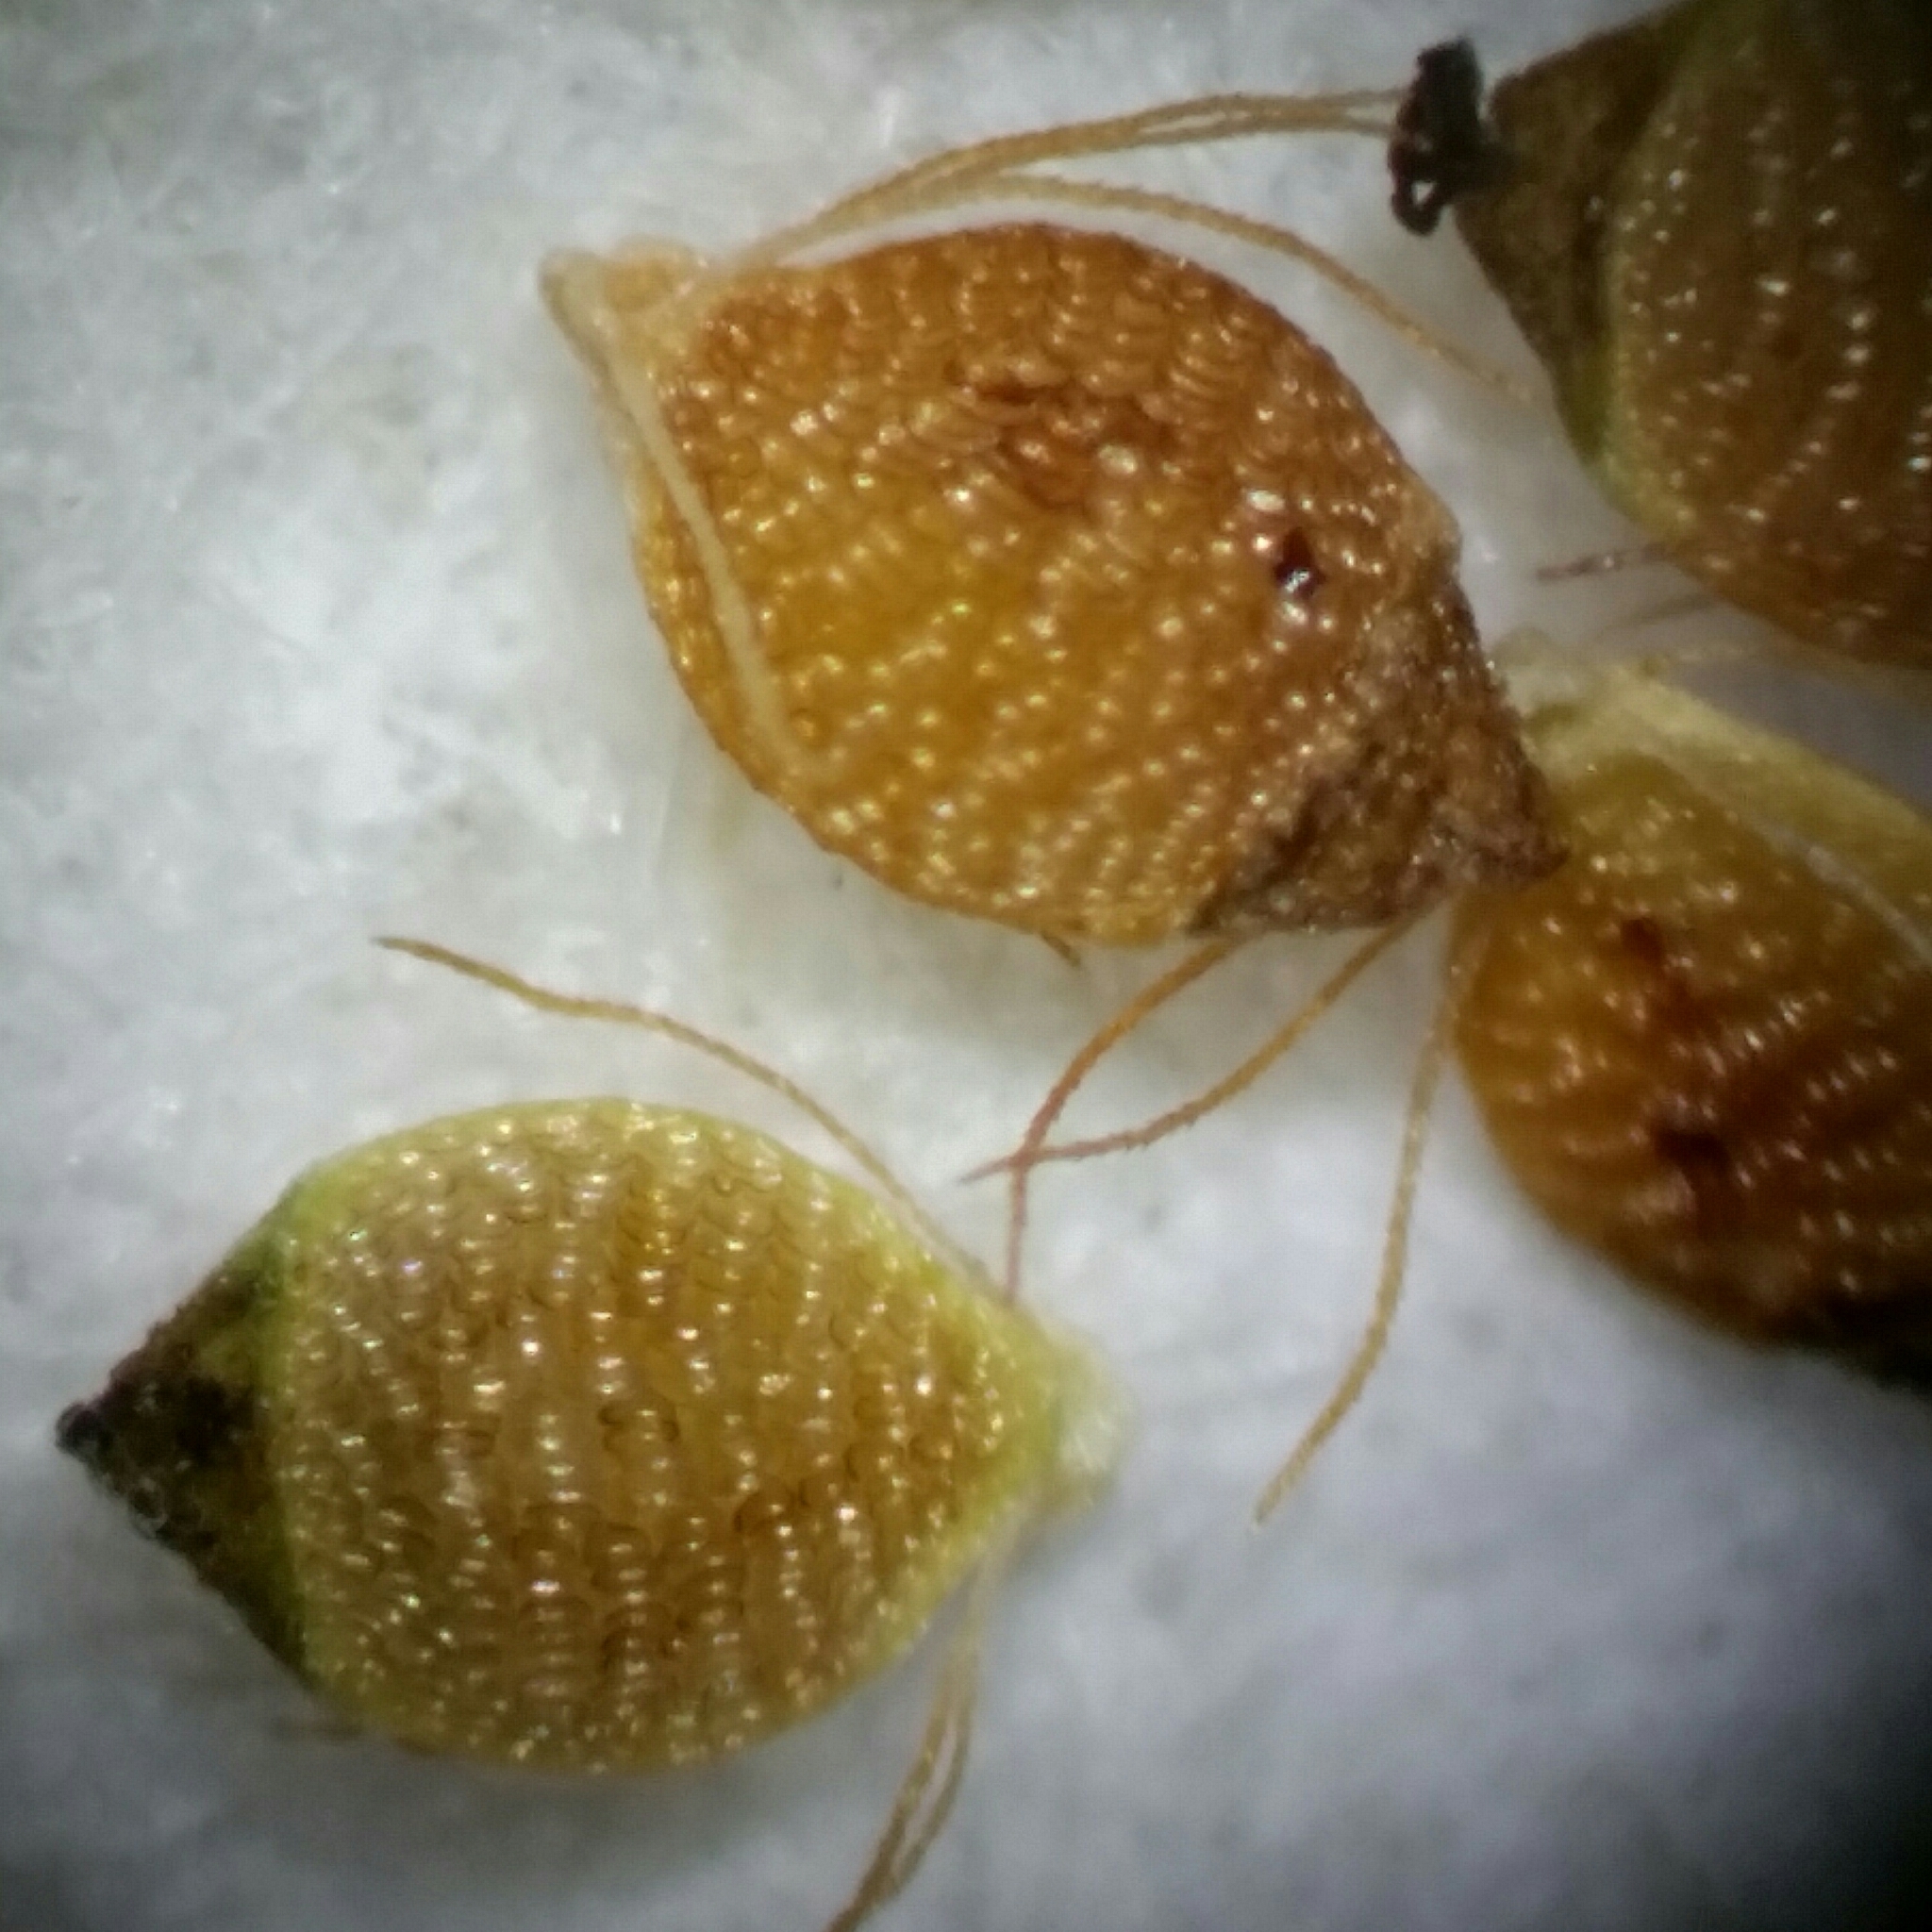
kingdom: Plantae
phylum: Tracheophyta
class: Liliopsida
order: Poales
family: Cyperaceae
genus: Rhynchospora
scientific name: Rhynchospora microcarpa
